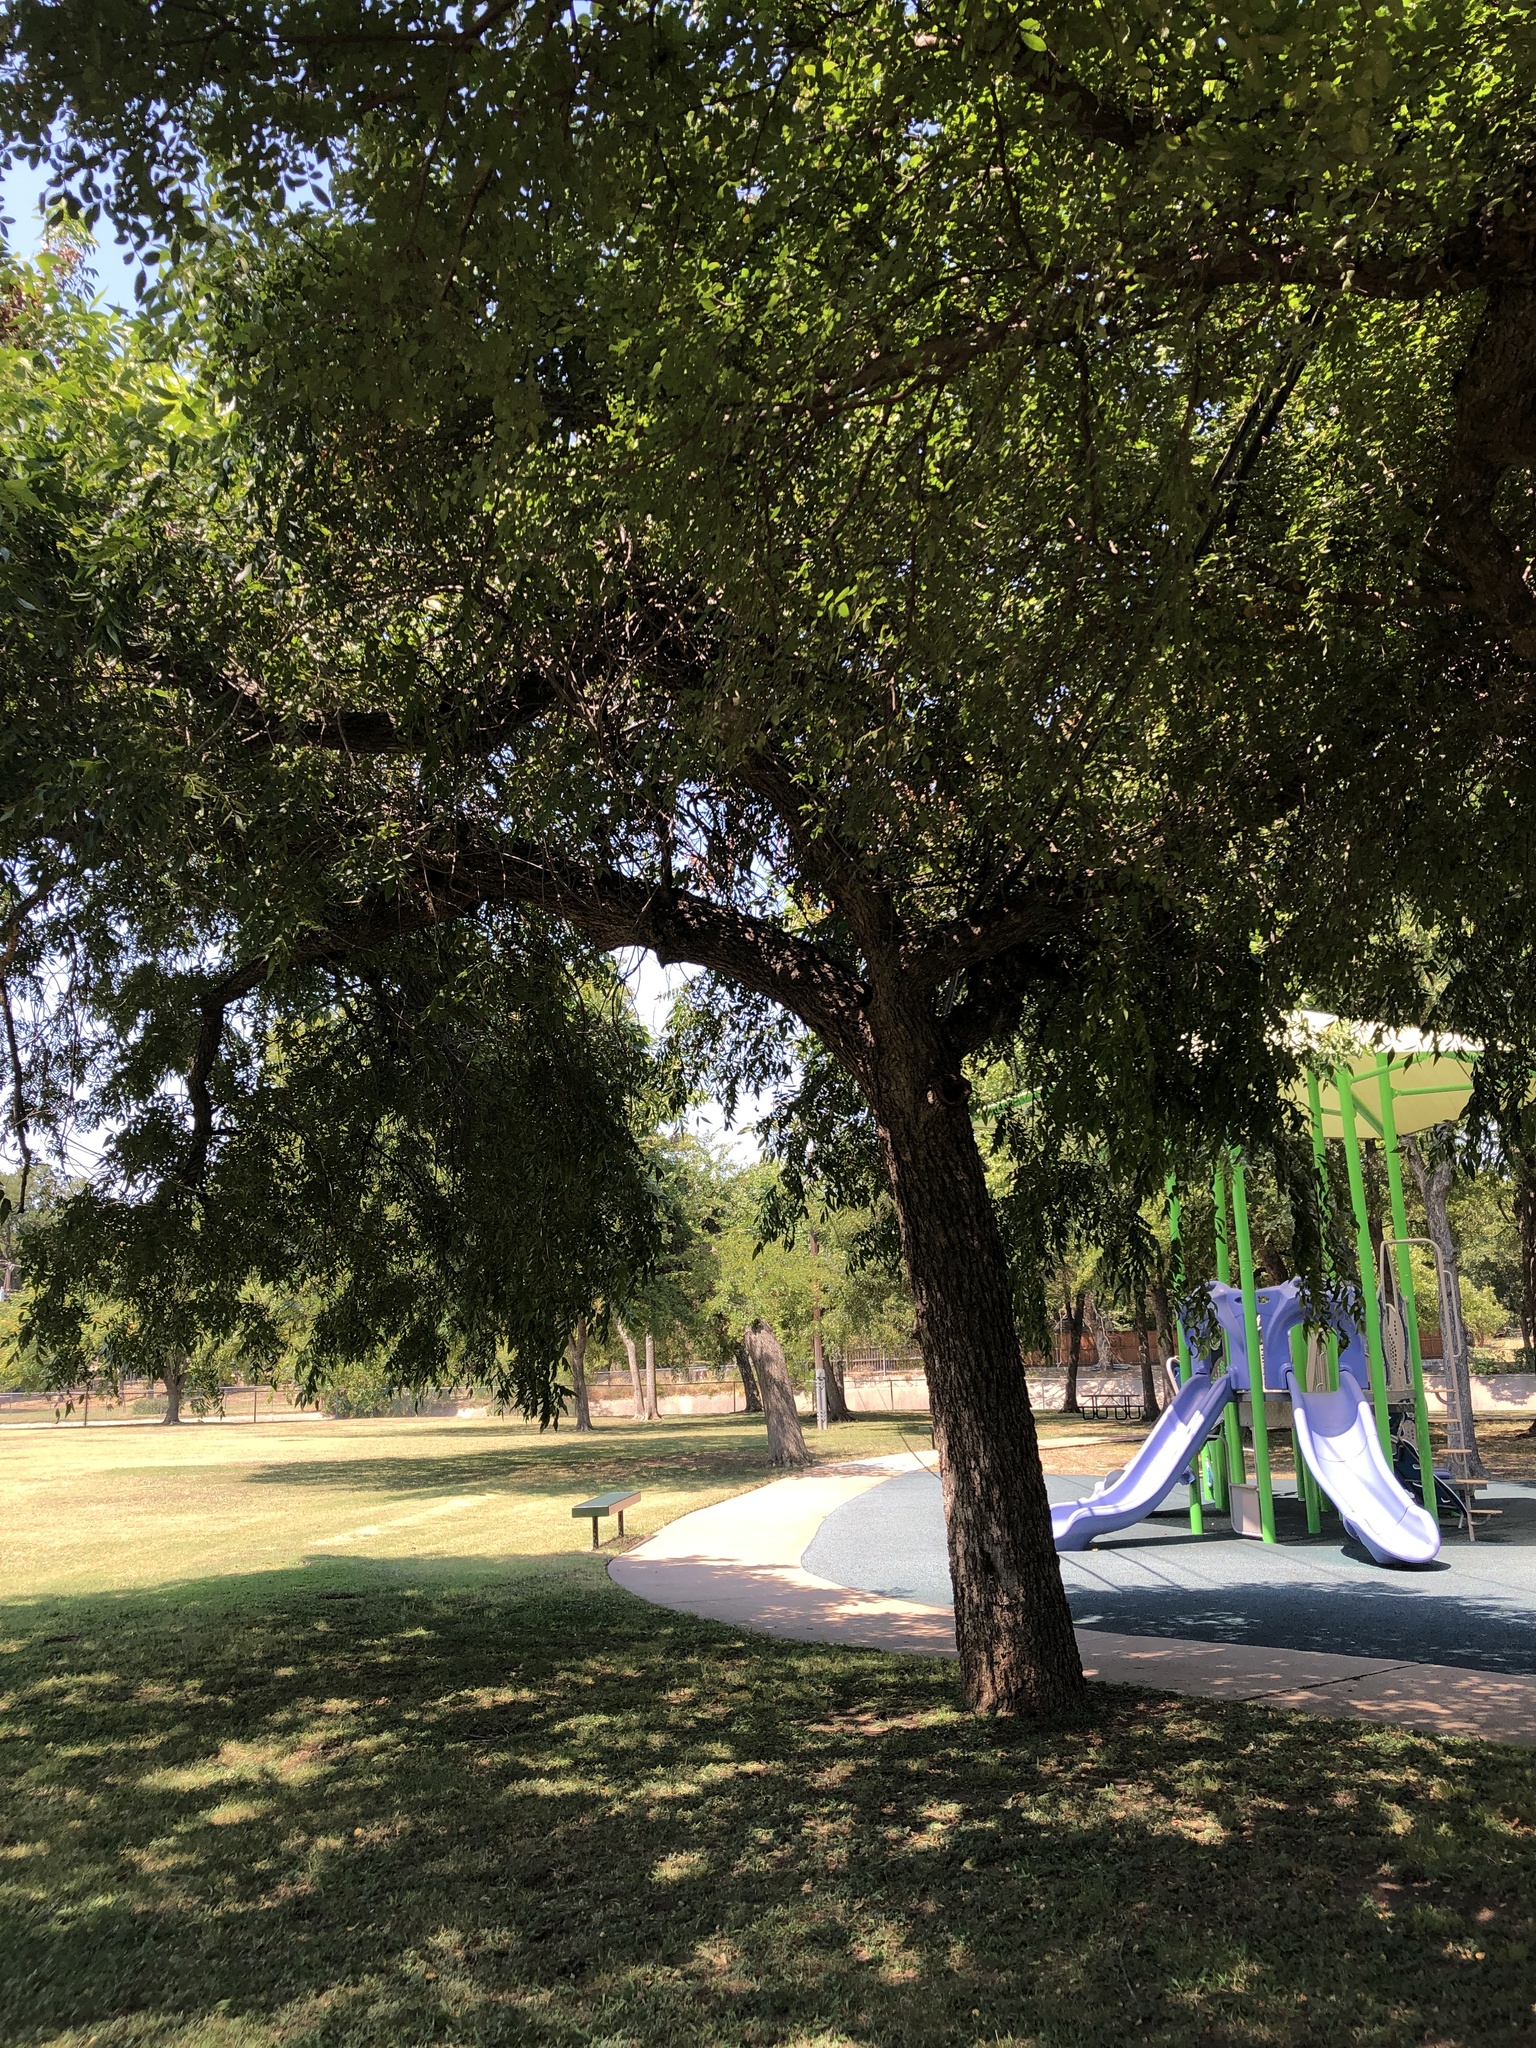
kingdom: Plantae
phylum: Tracheophyta
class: Magnoliopsida
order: Fagales
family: Juglandaceae
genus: Carya
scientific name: Carya illinoinensis
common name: Pecan
